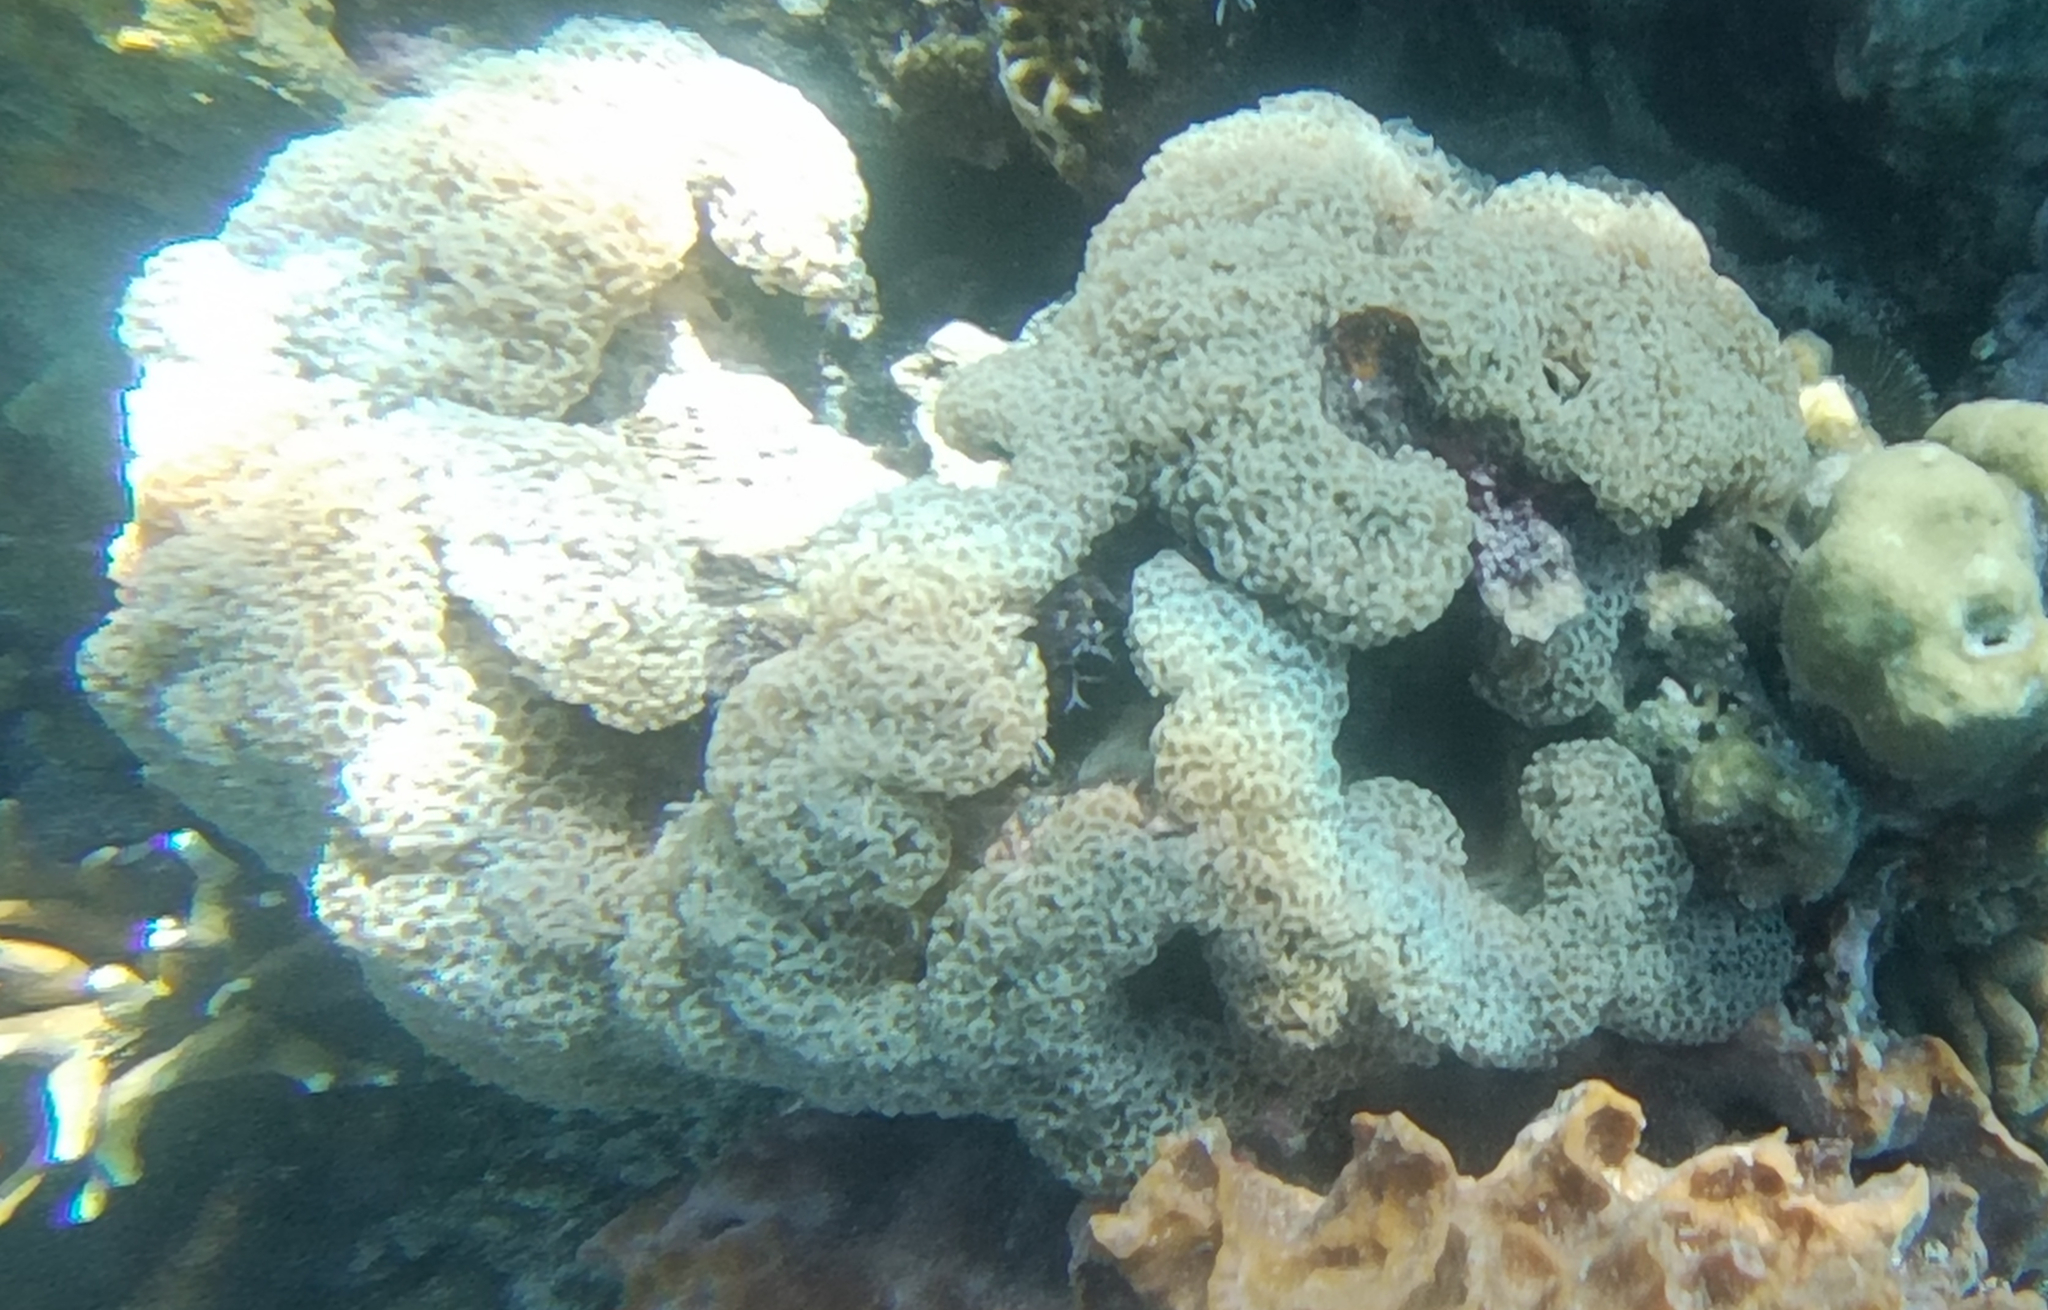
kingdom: Animalia
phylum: Cnidaria
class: Anthozoa
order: Scleractinia
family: Euphylliidae
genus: Fimbriaphyllia
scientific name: Fimbriaphyllia ancora
